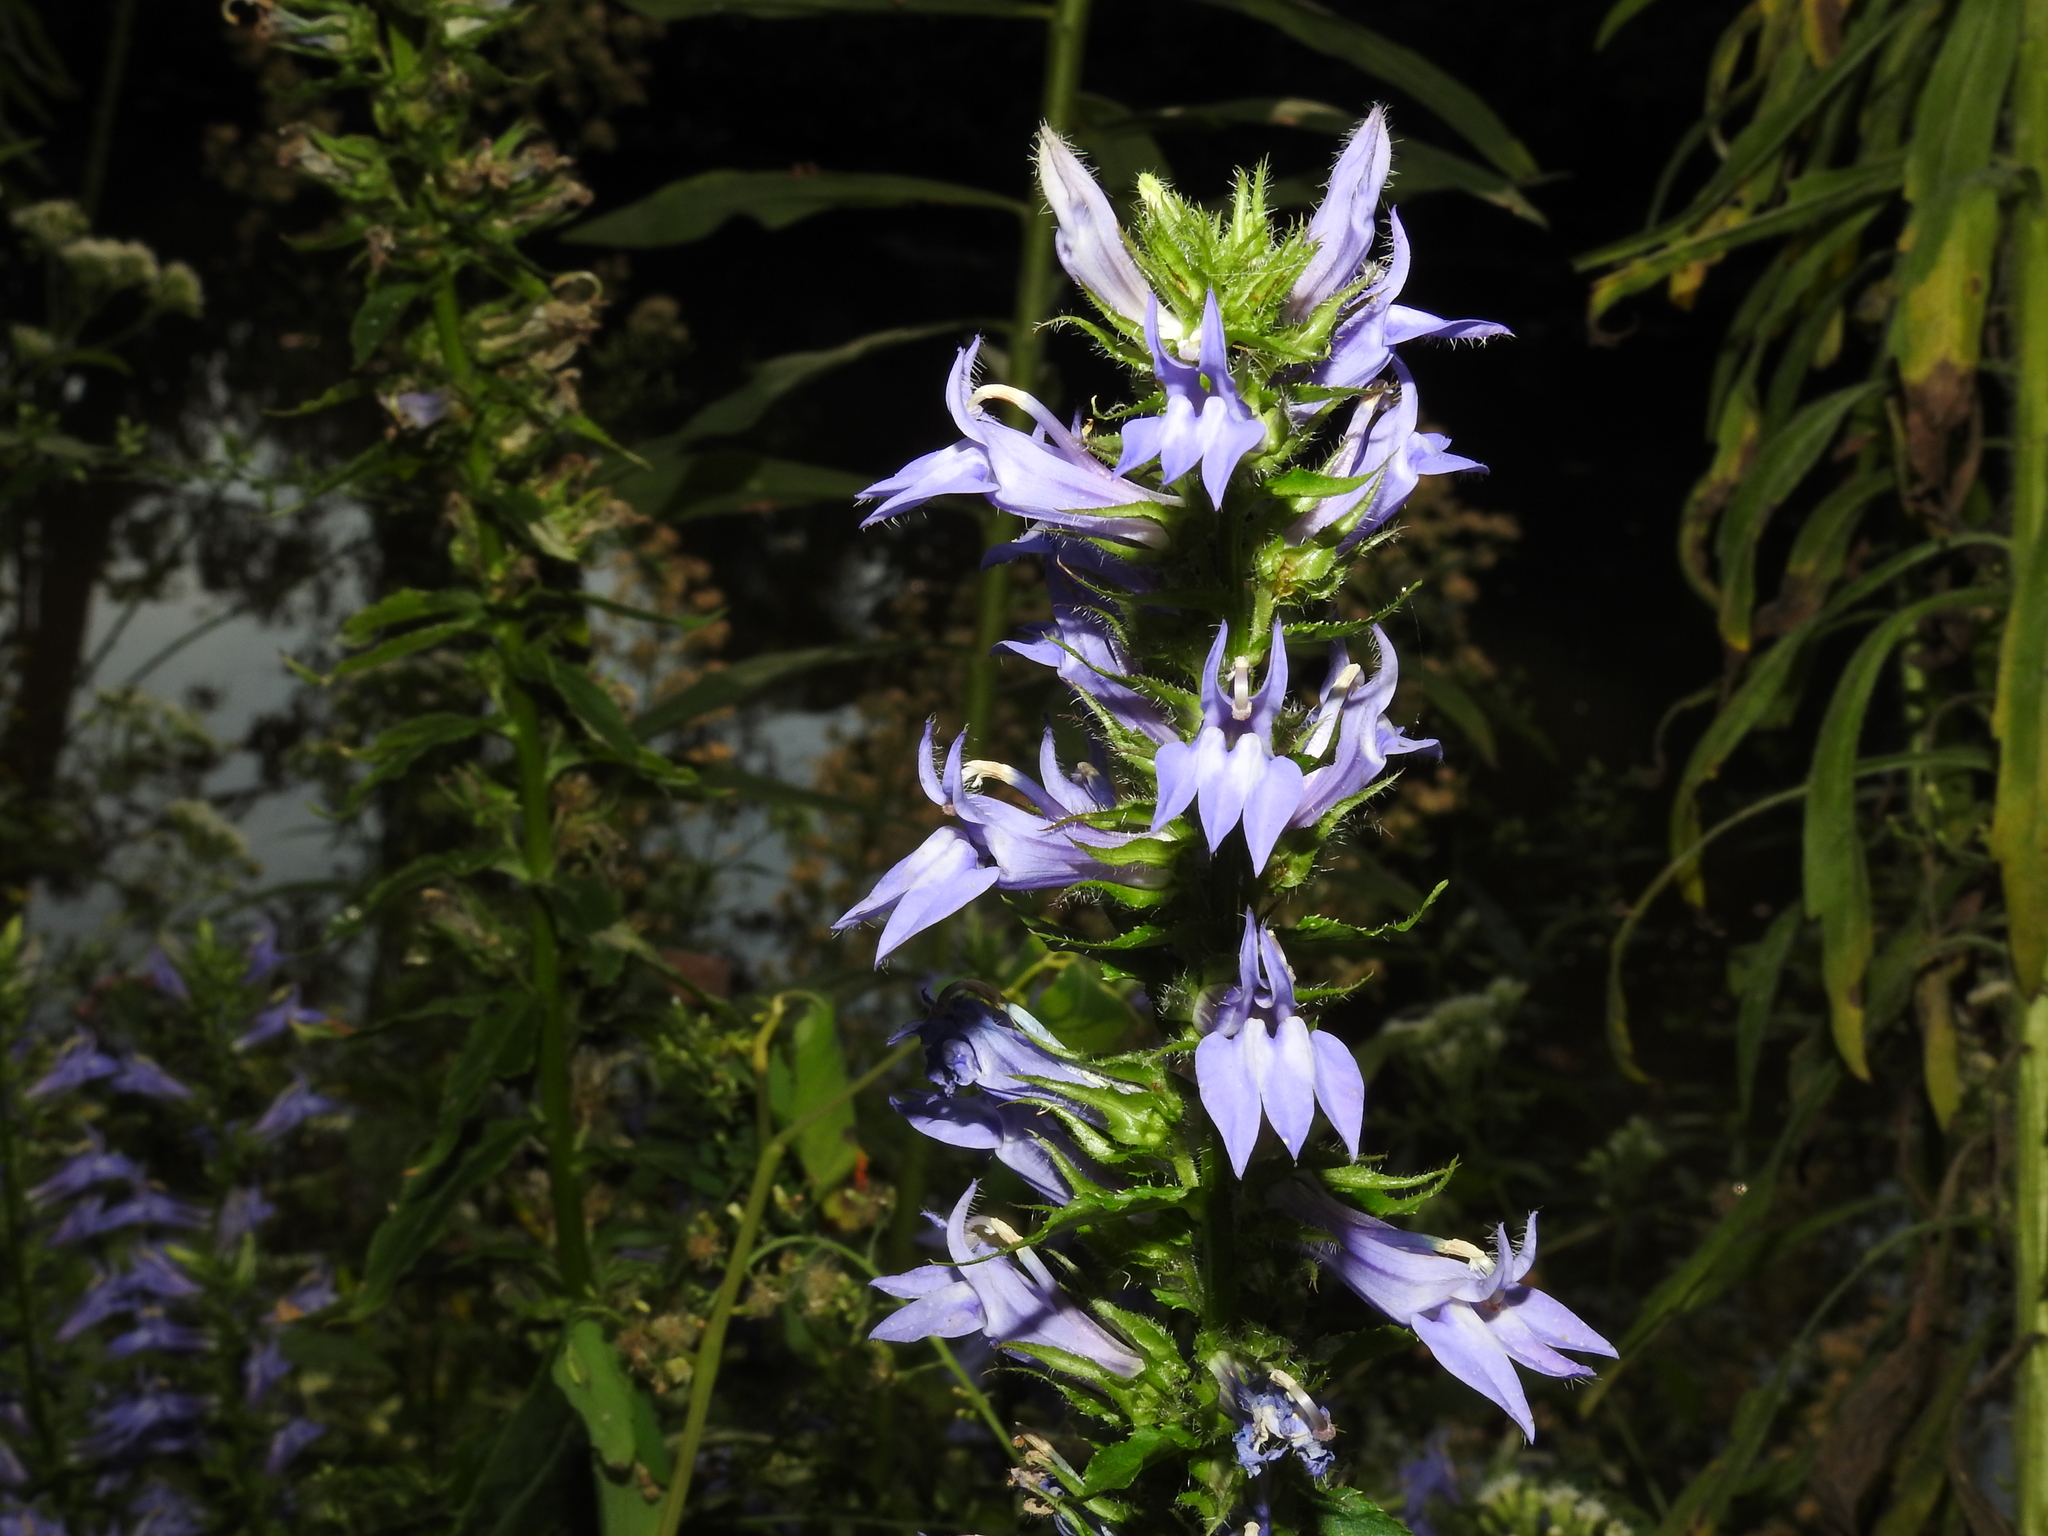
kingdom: Plantae
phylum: Tracheophyta
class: Magnoliopsida
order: Asterales
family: Campanulaceae
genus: Lobelia
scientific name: Lobelia siphilitica
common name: Great lobelia
